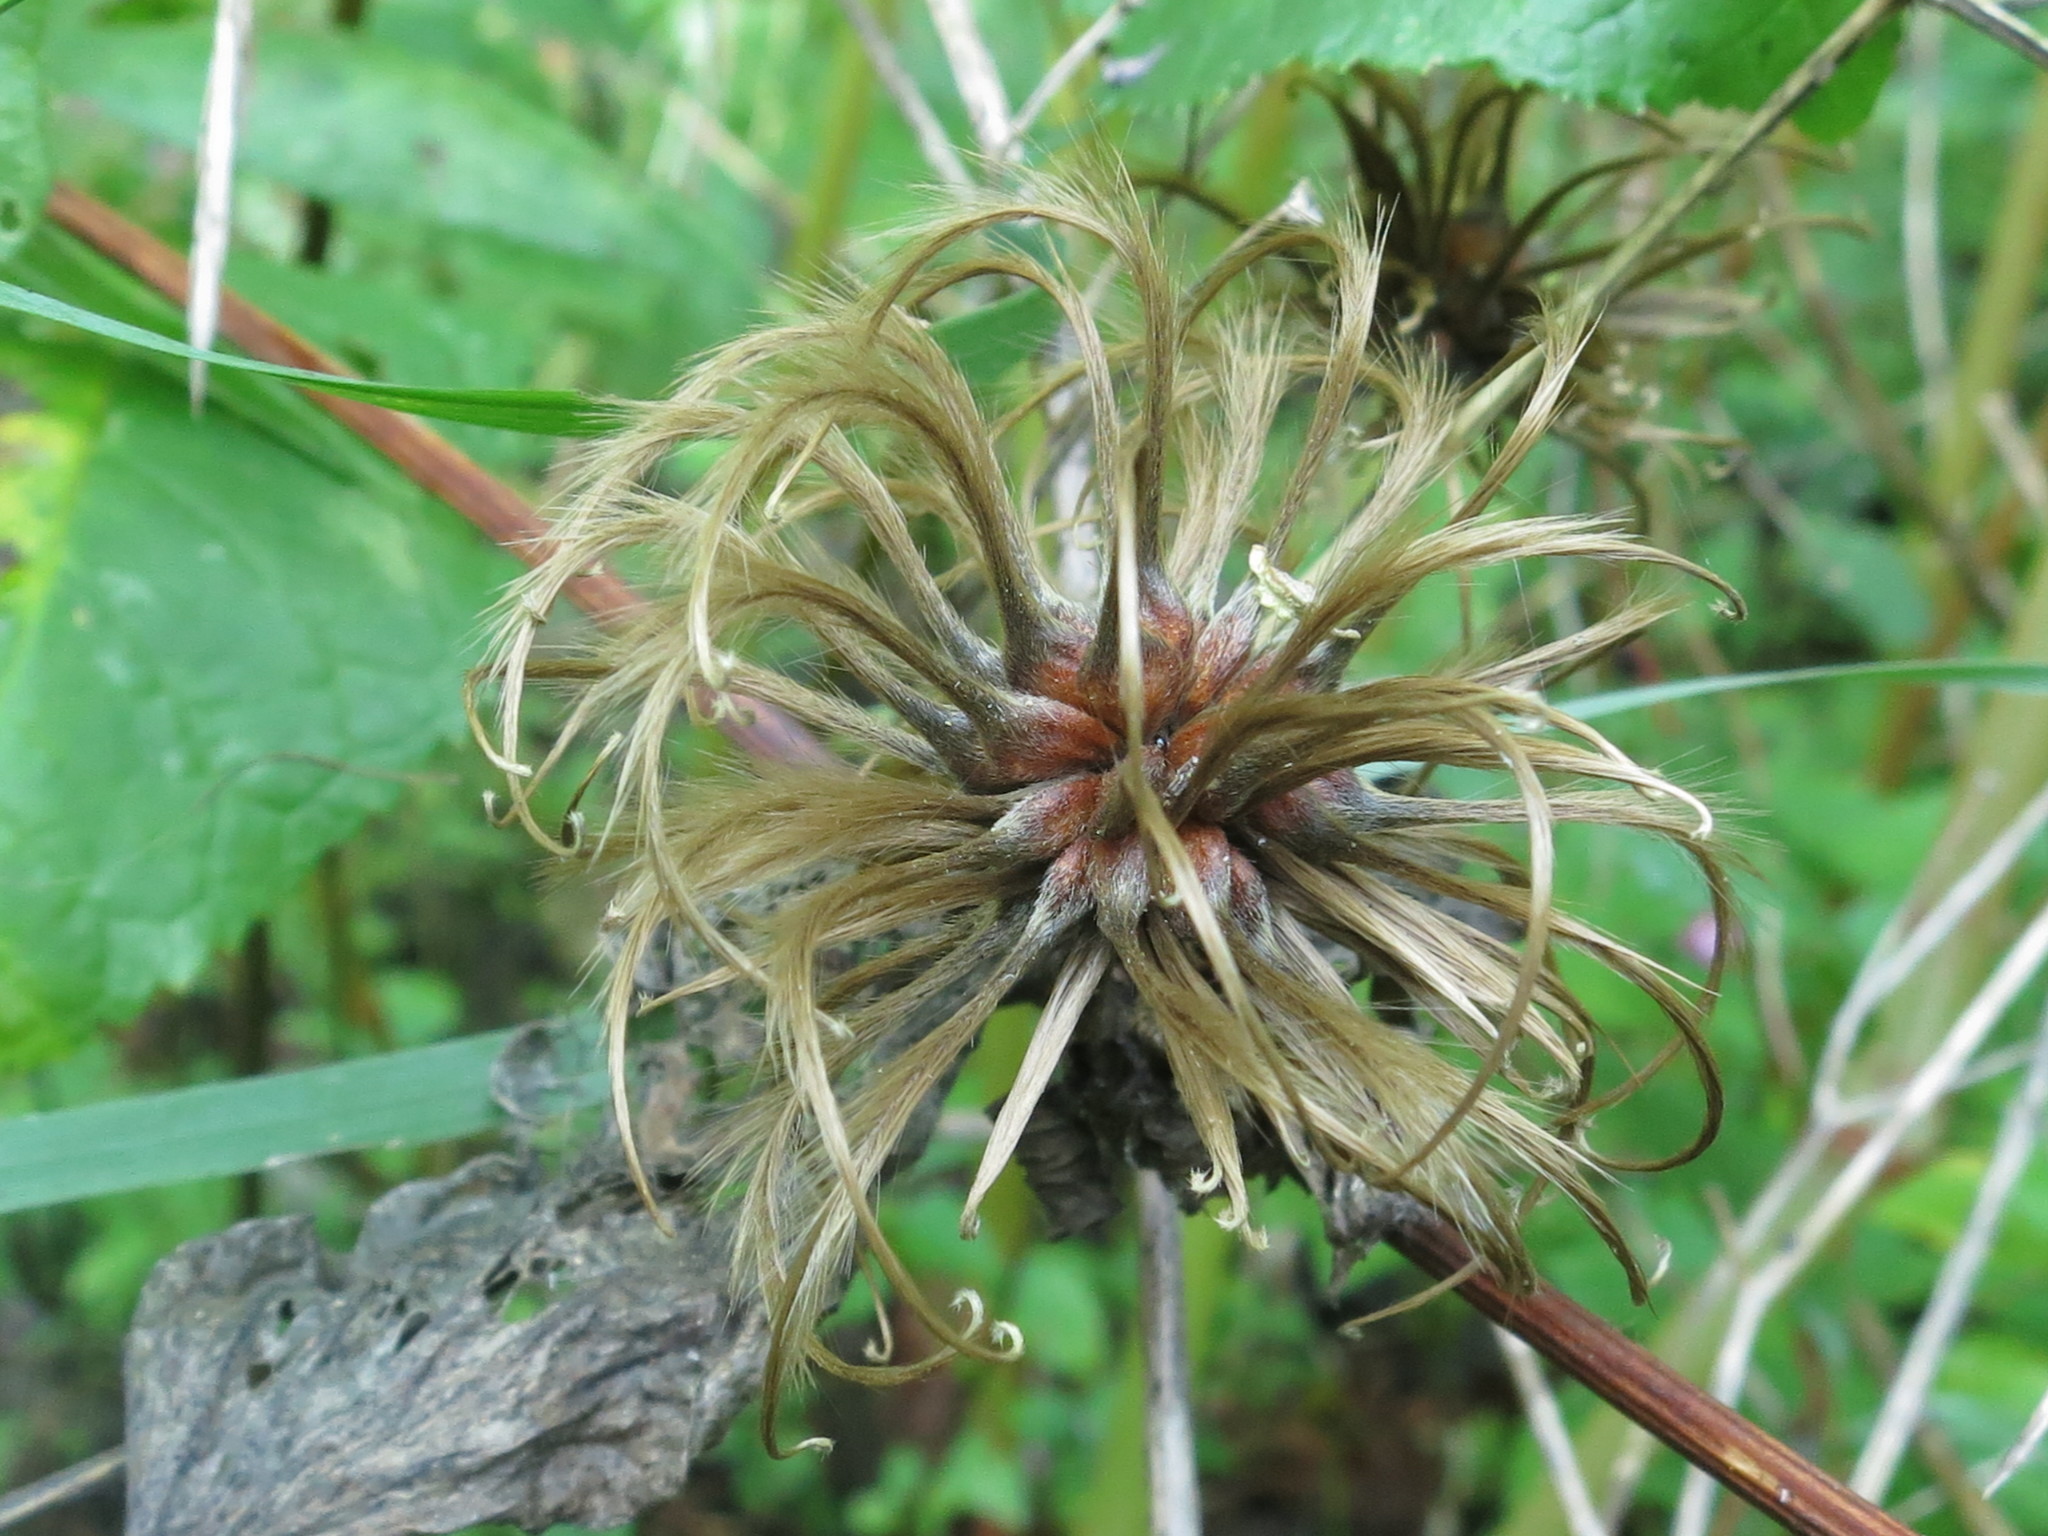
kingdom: Plantae
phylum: Tracheophyta
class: Magnoliopsida
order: Ranunculales
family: Ranunculaceae
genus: Clematis
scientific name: Clematis fusca
